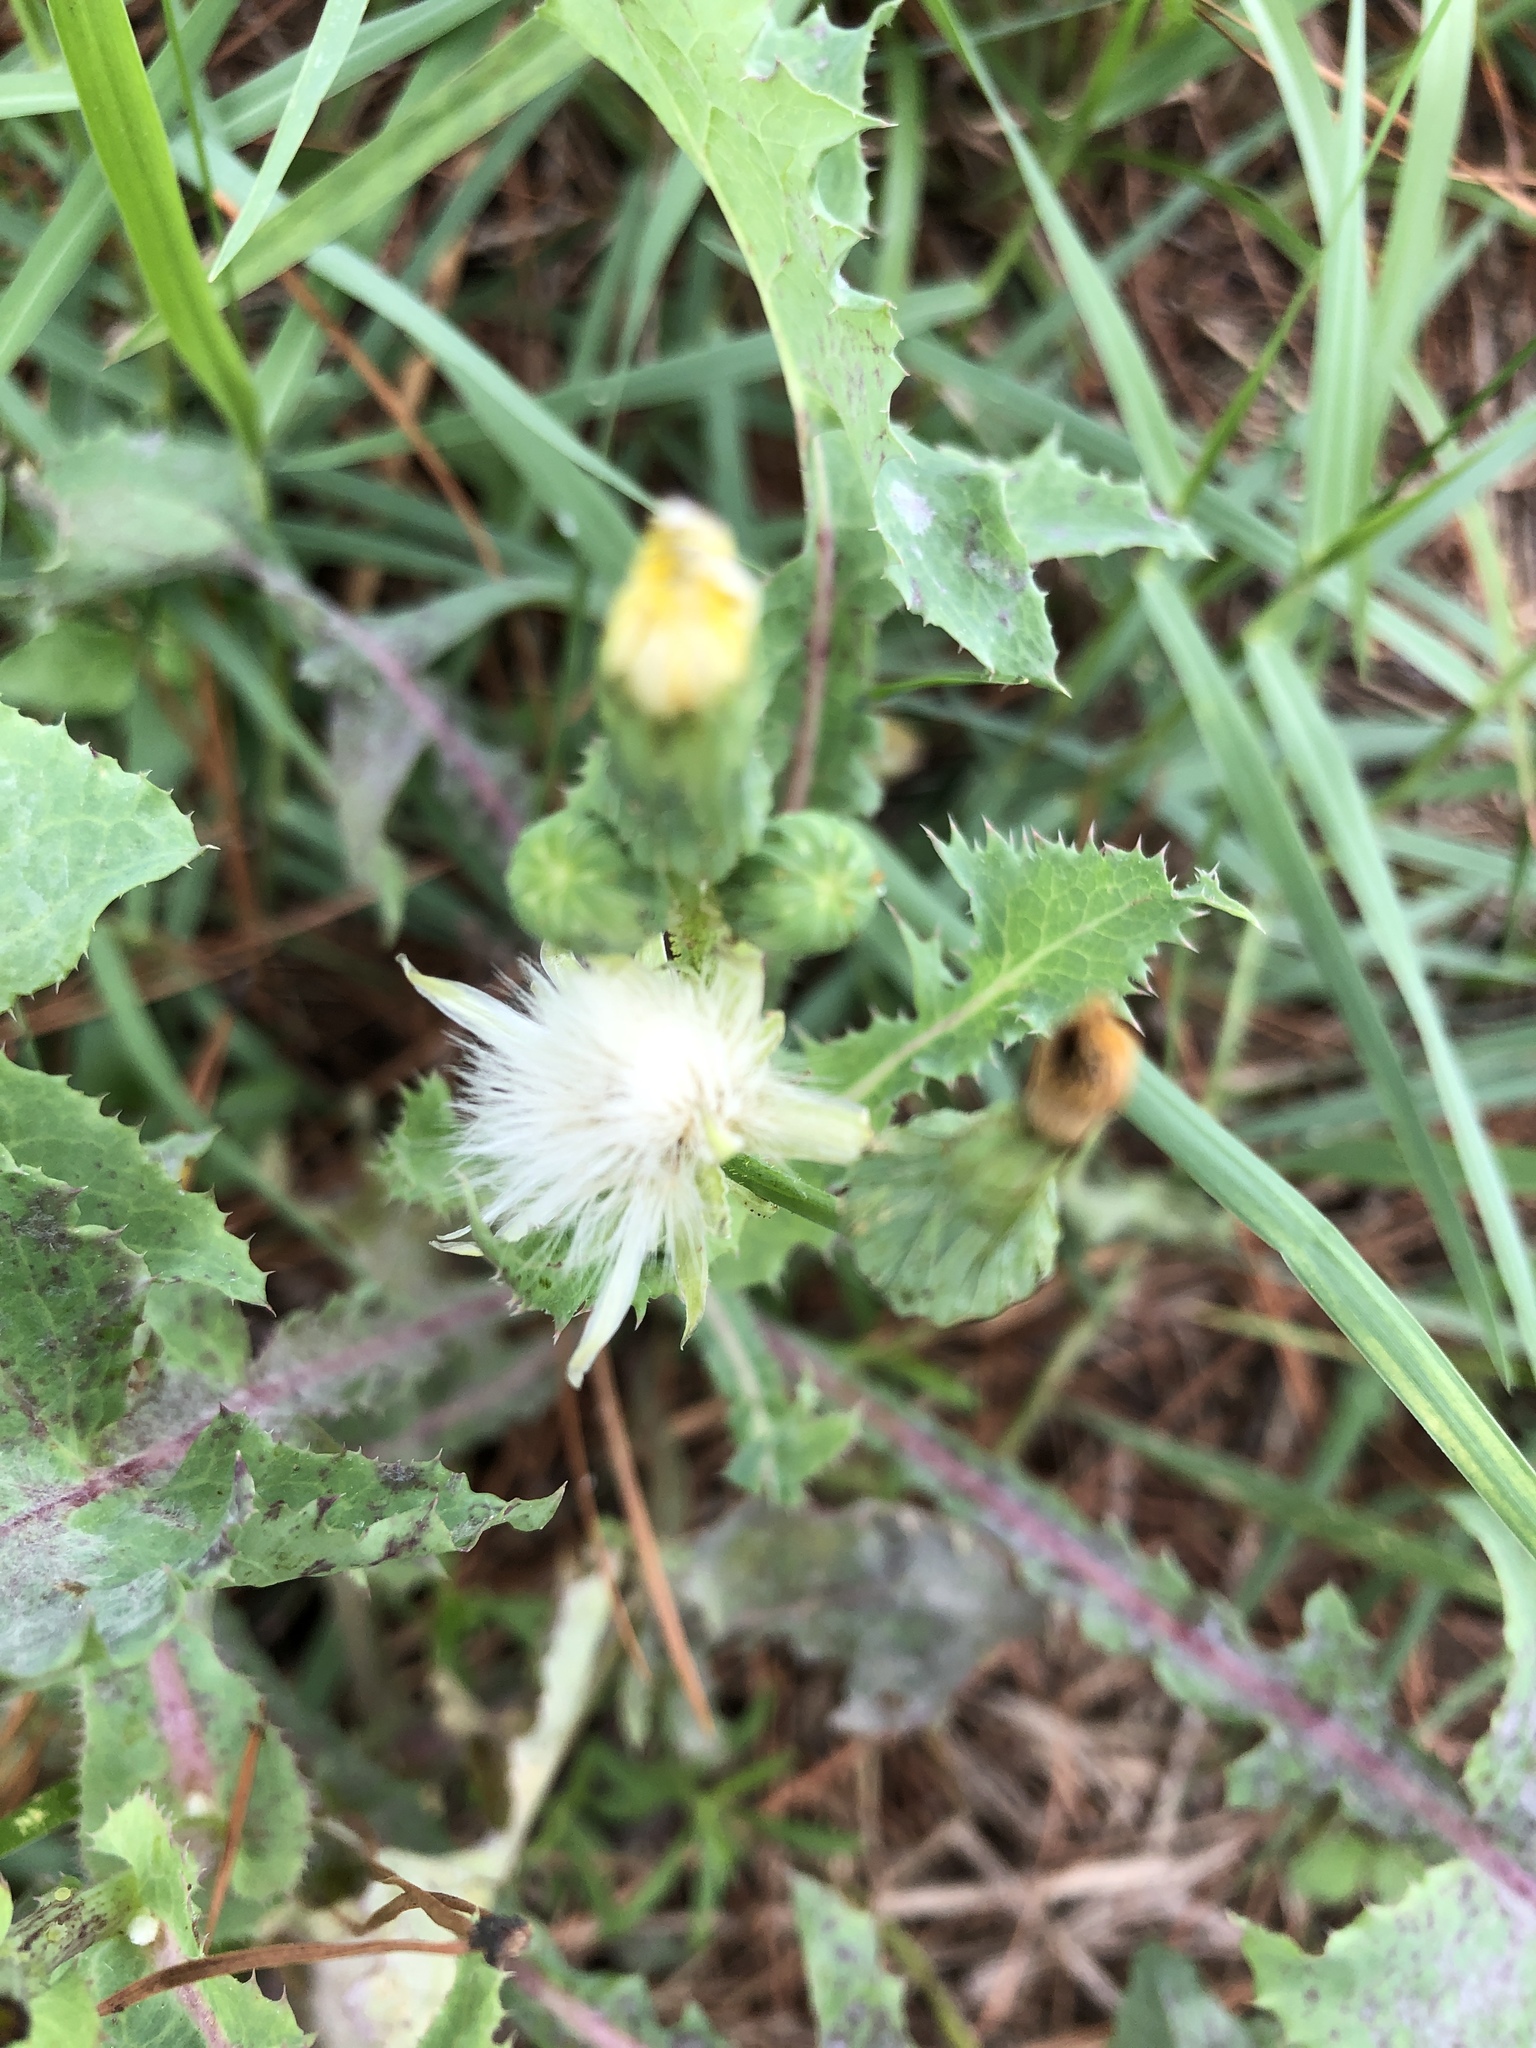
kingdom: Plantae
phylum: Tracheophyta
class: Magnoliopsida
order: Asterales
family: Asteraceae
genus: Sonchus
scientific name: Sonchus asper
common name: Prickly sow-thistle
